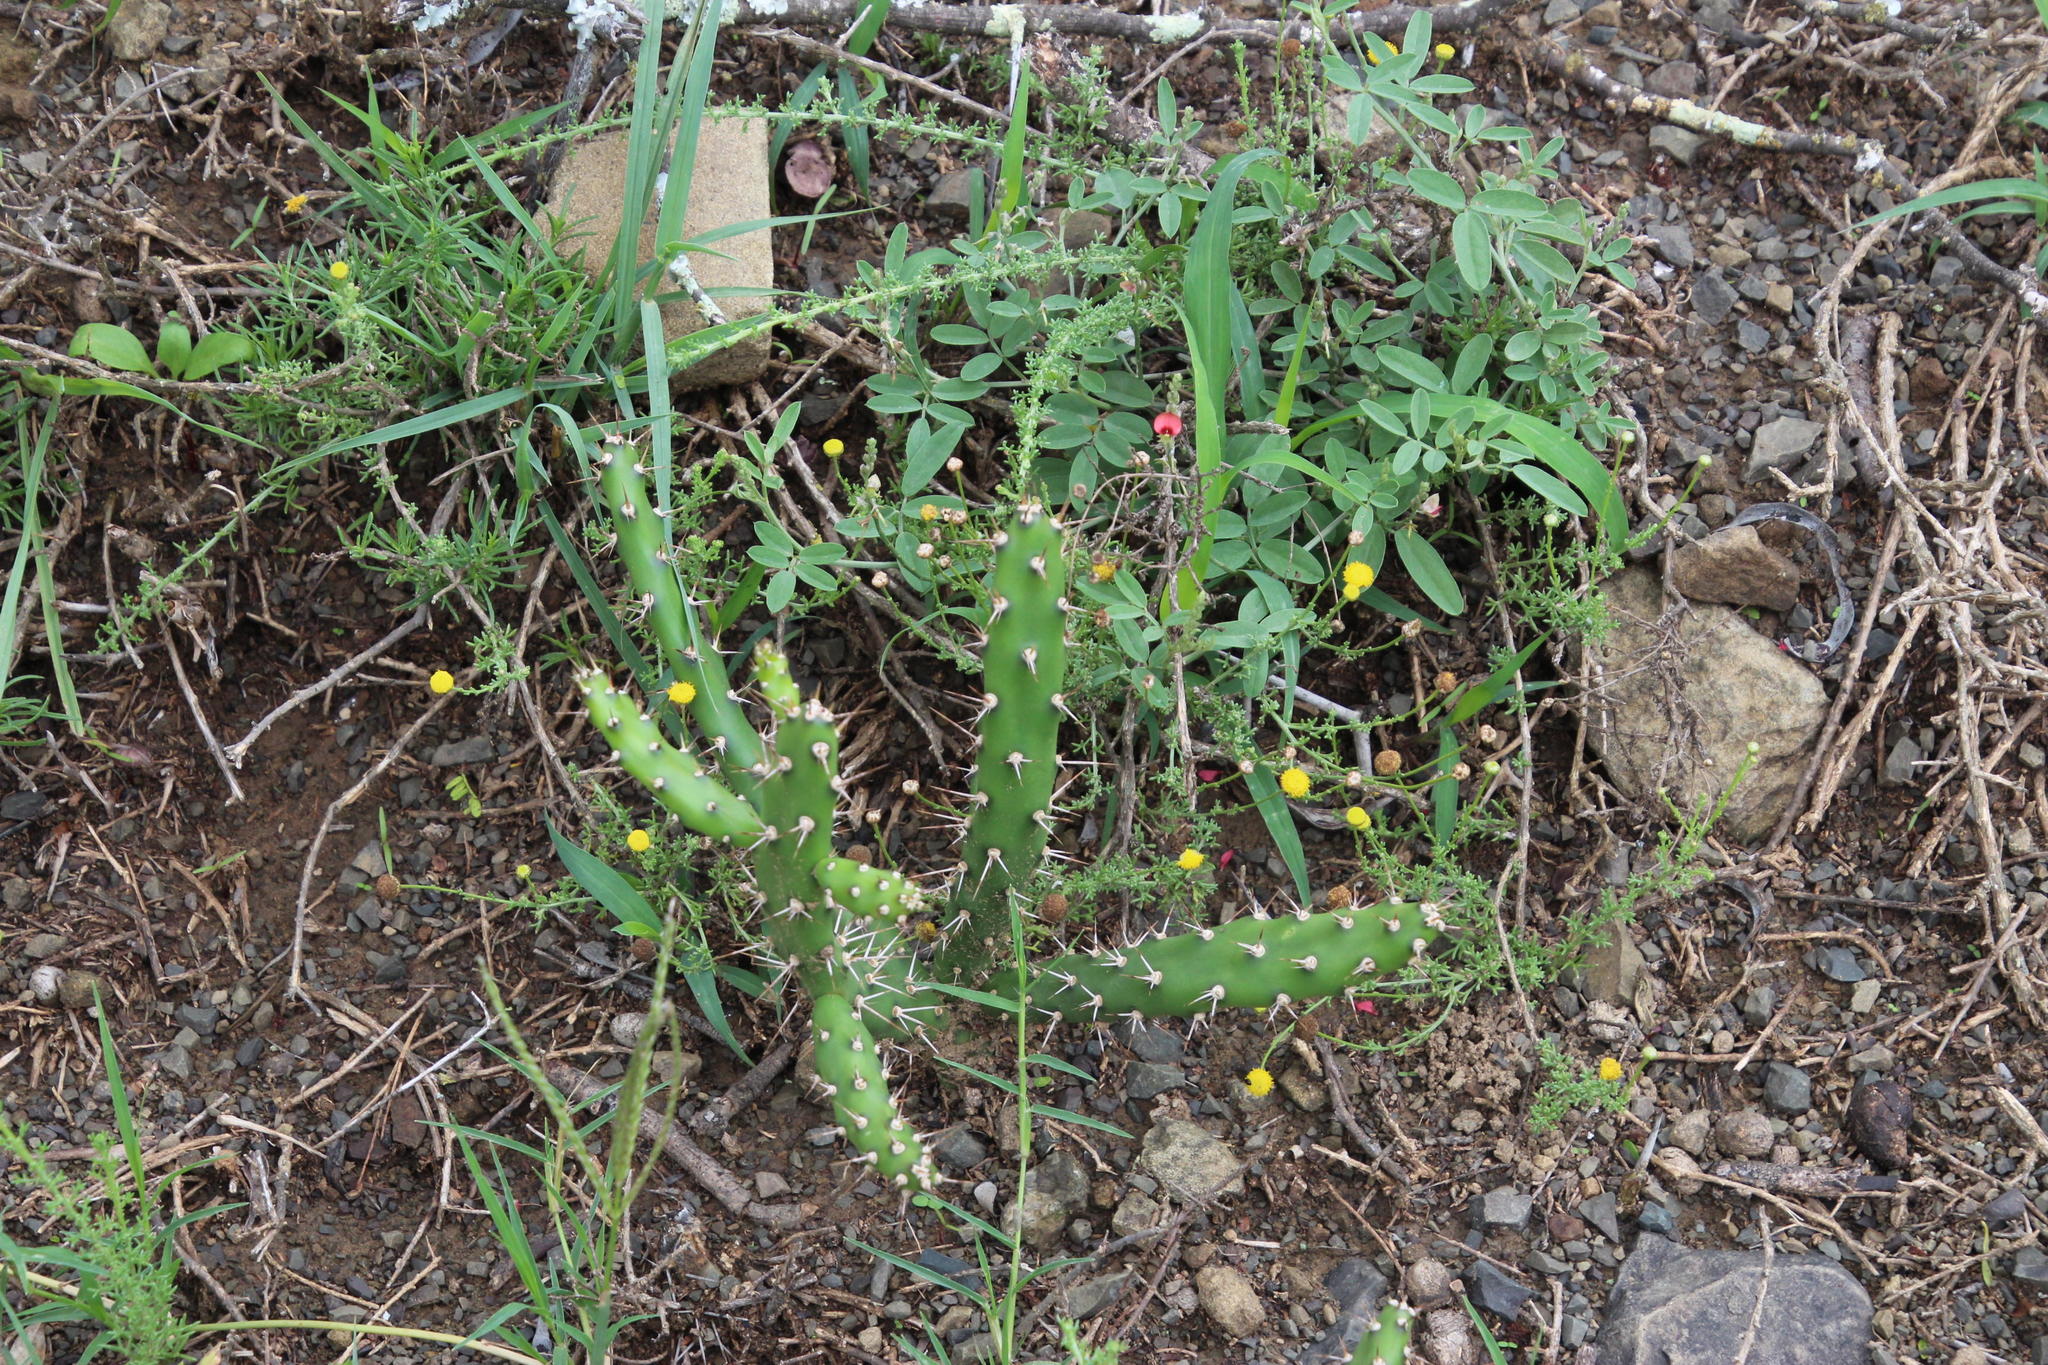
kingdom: Plantae
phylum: Tracheophyta
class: Magnoliopsida
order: Caryophyllales
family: Cactaceae
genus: Opuntia
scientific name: Opuntia aurantiaca
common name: Jointed pricklypear
